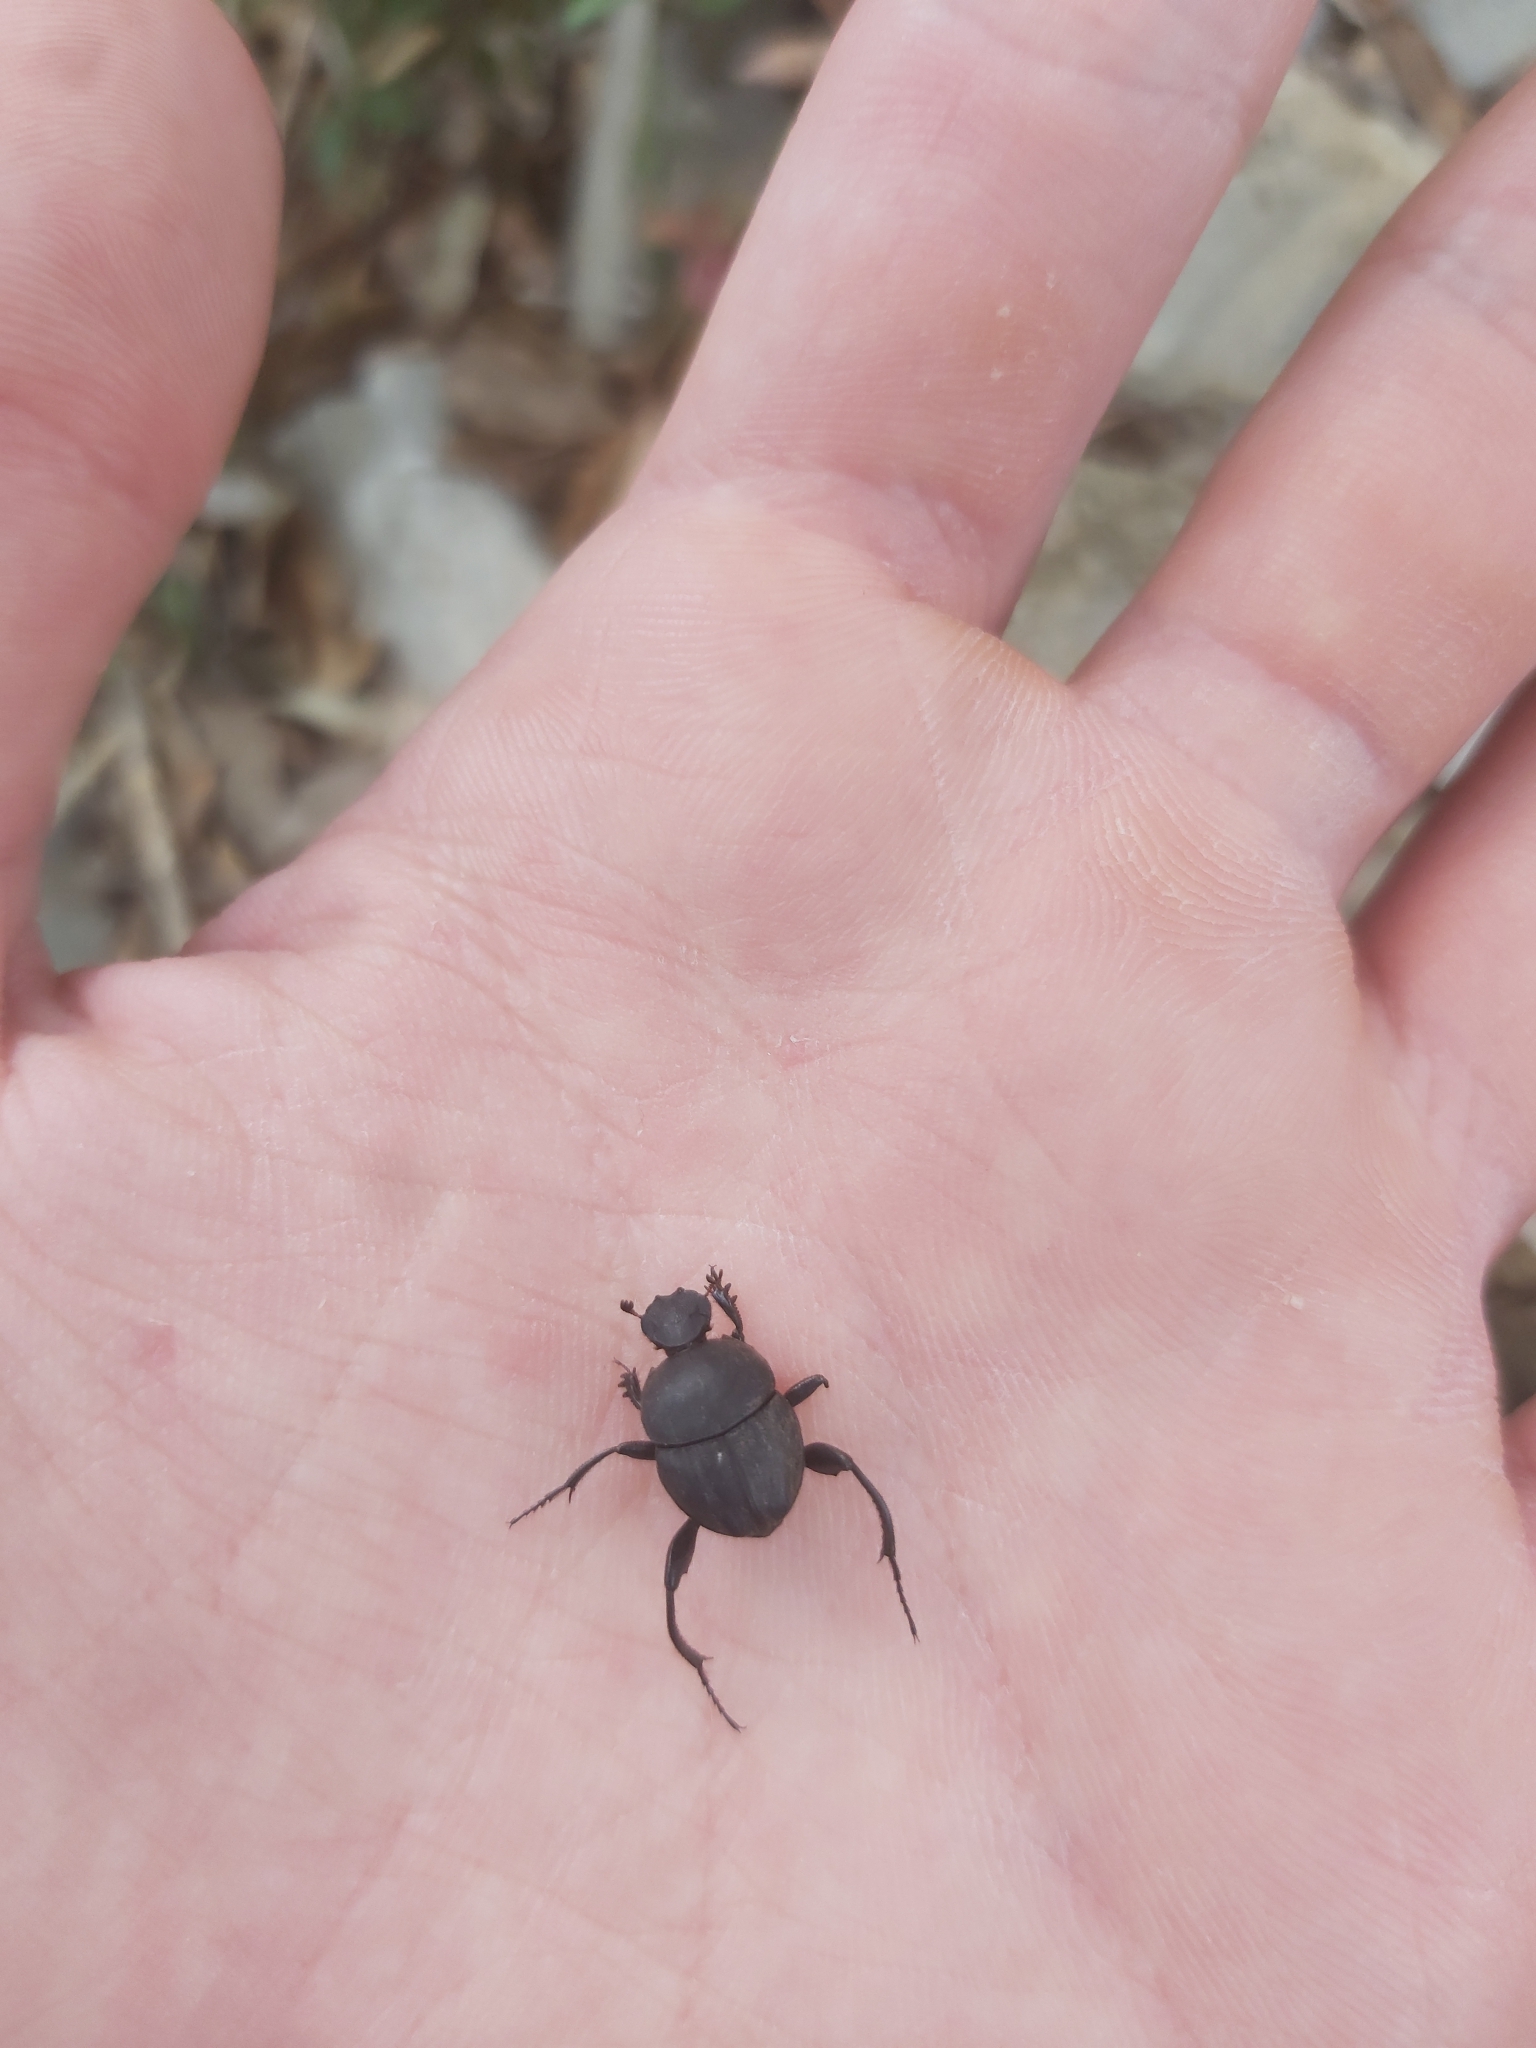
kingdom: Animalia
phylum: Arthropoda
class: Insecta
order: Coleoptera
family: Scarabaeidae
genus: Sisyphus
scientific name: Sisyphus schaefferi
